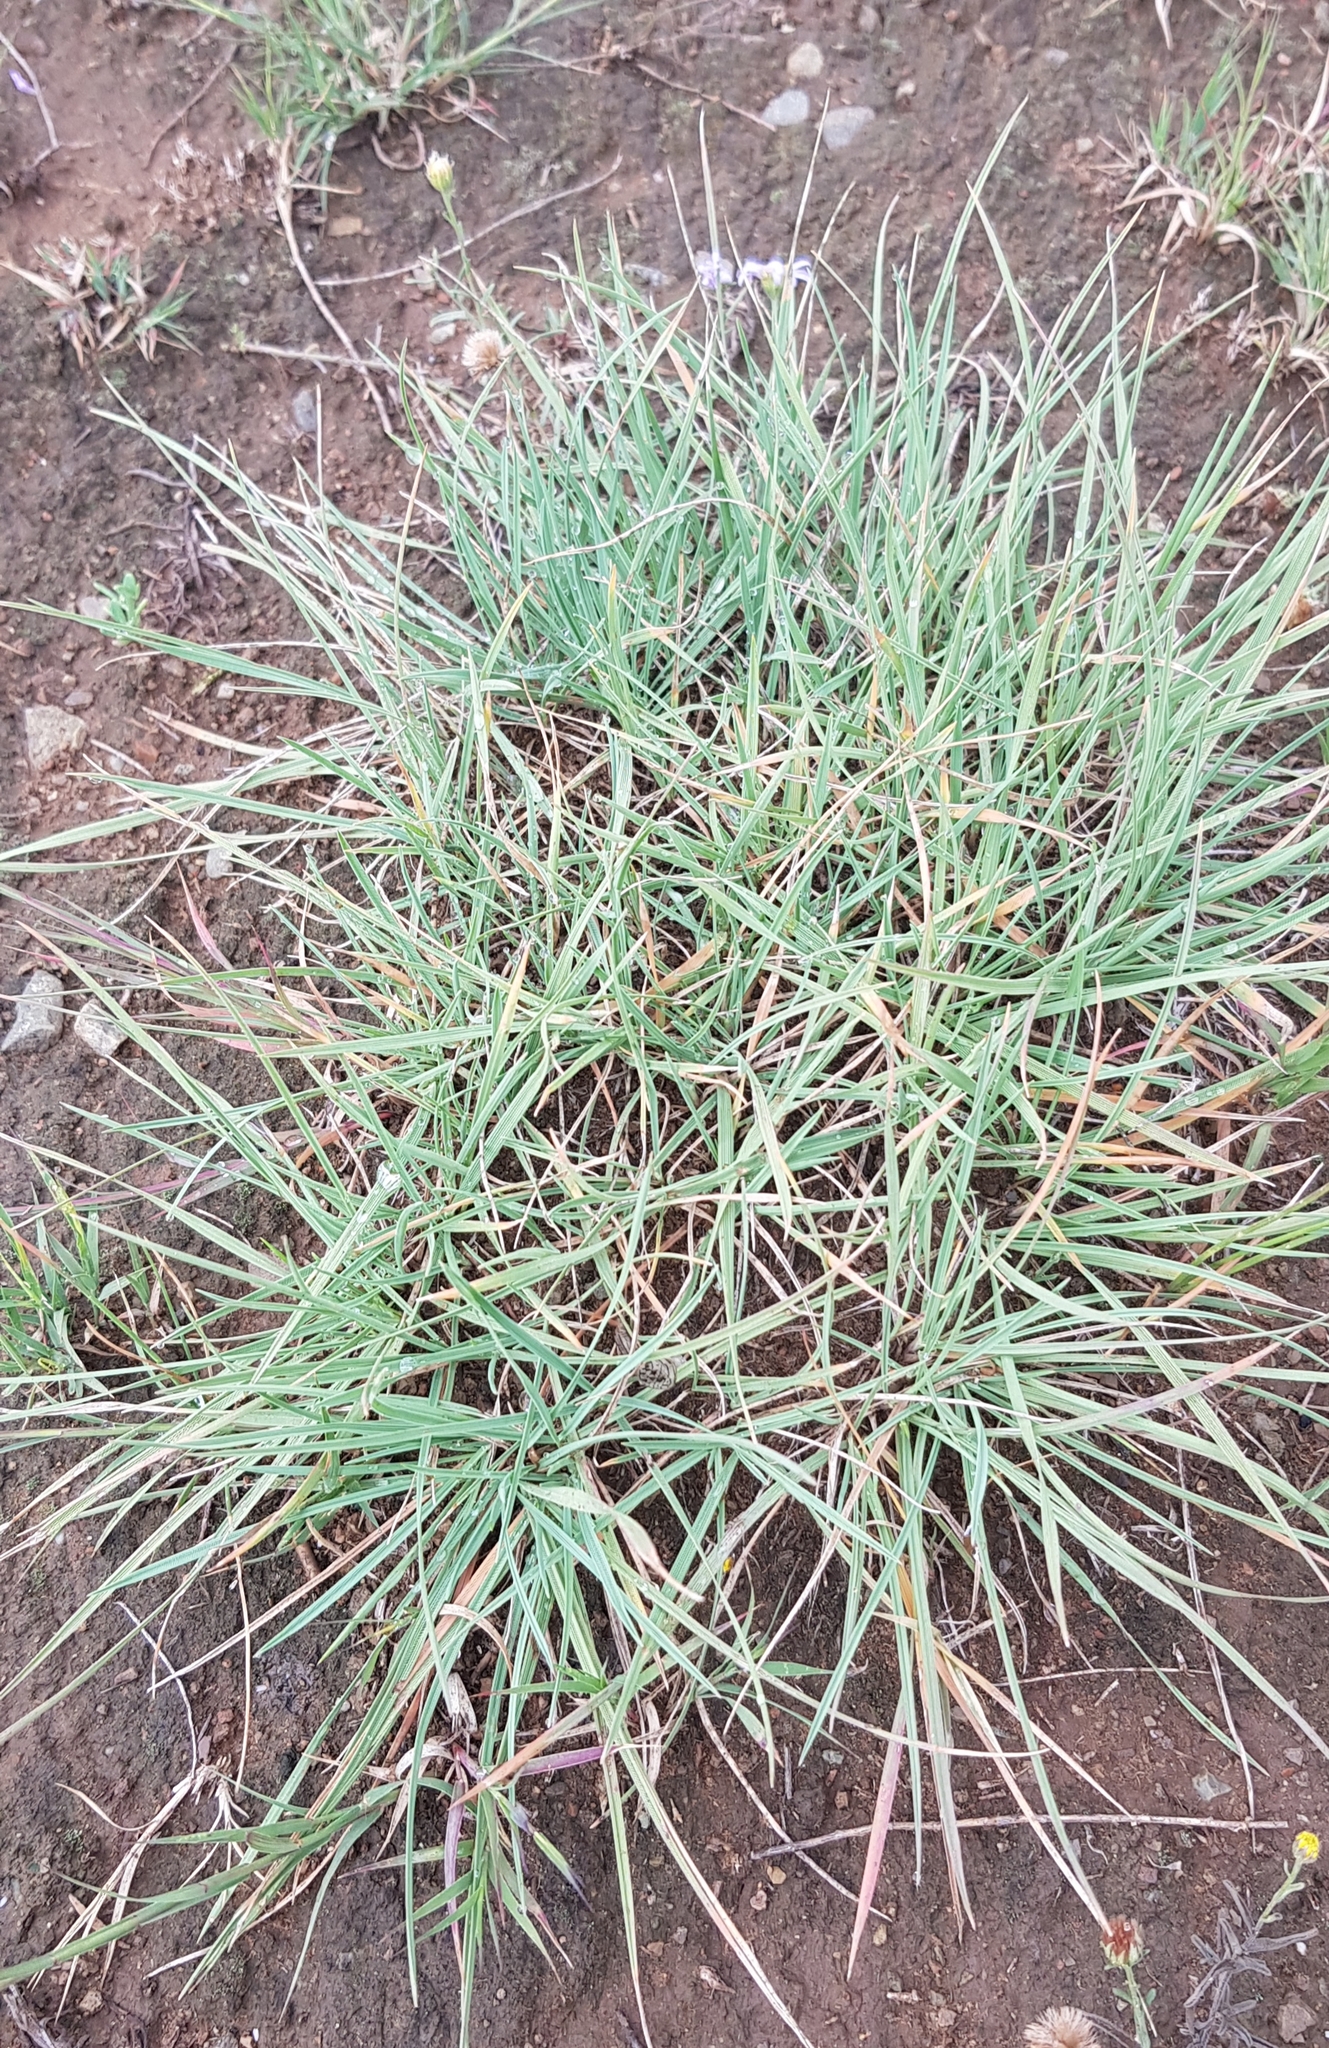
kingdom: Plantae
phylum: Tracheophyta
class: Liliopsida
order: Poales
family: Poaceae
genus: Cleistogenes
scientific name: Cleistogenes squarrosa
